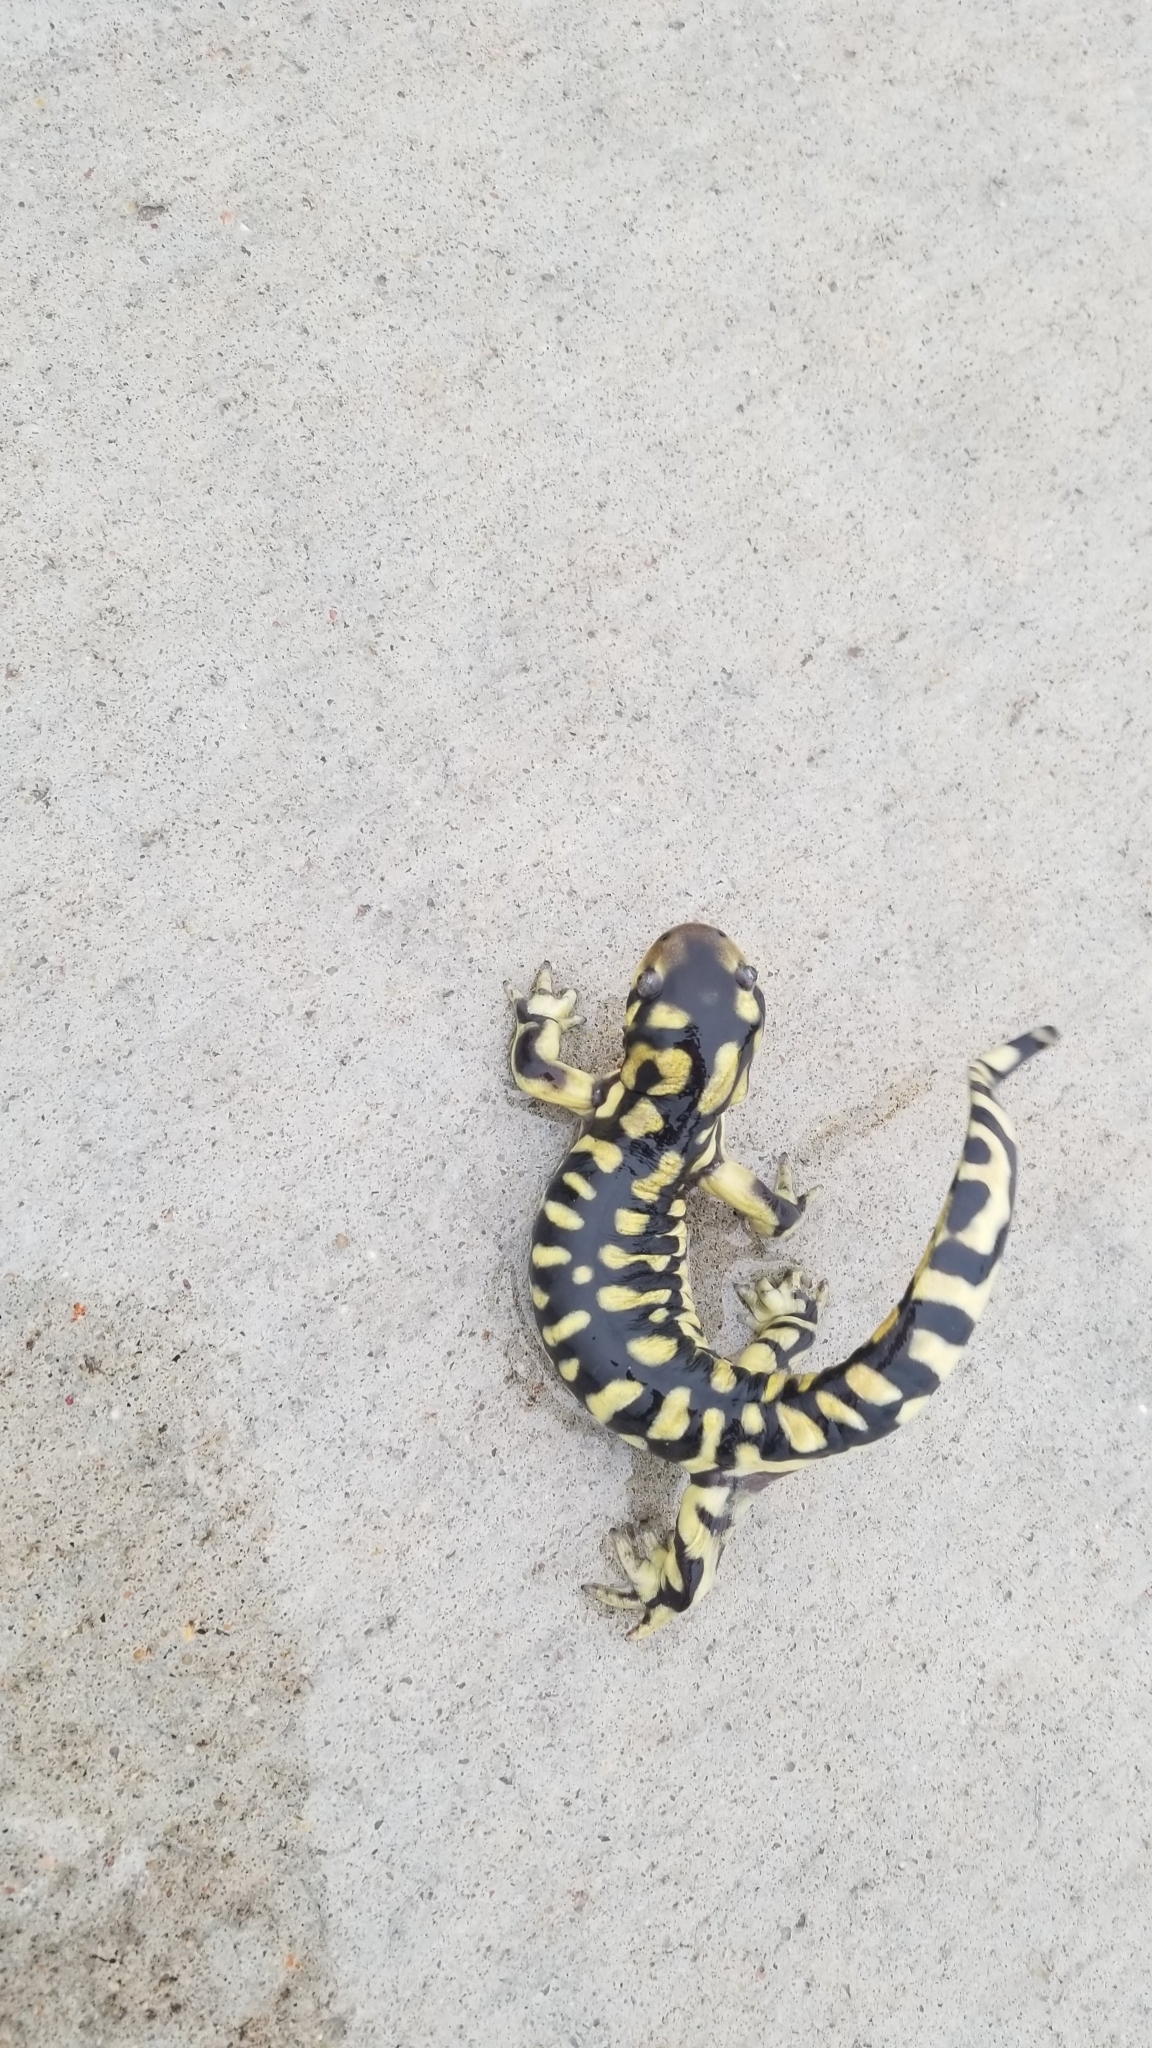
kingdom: Animalia
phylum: Chordata
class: Amphibia
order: Caudata
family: Ambystomatidae
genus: Ambystoma
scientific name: Ambystoma mavortium
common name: Western tiger salamander
